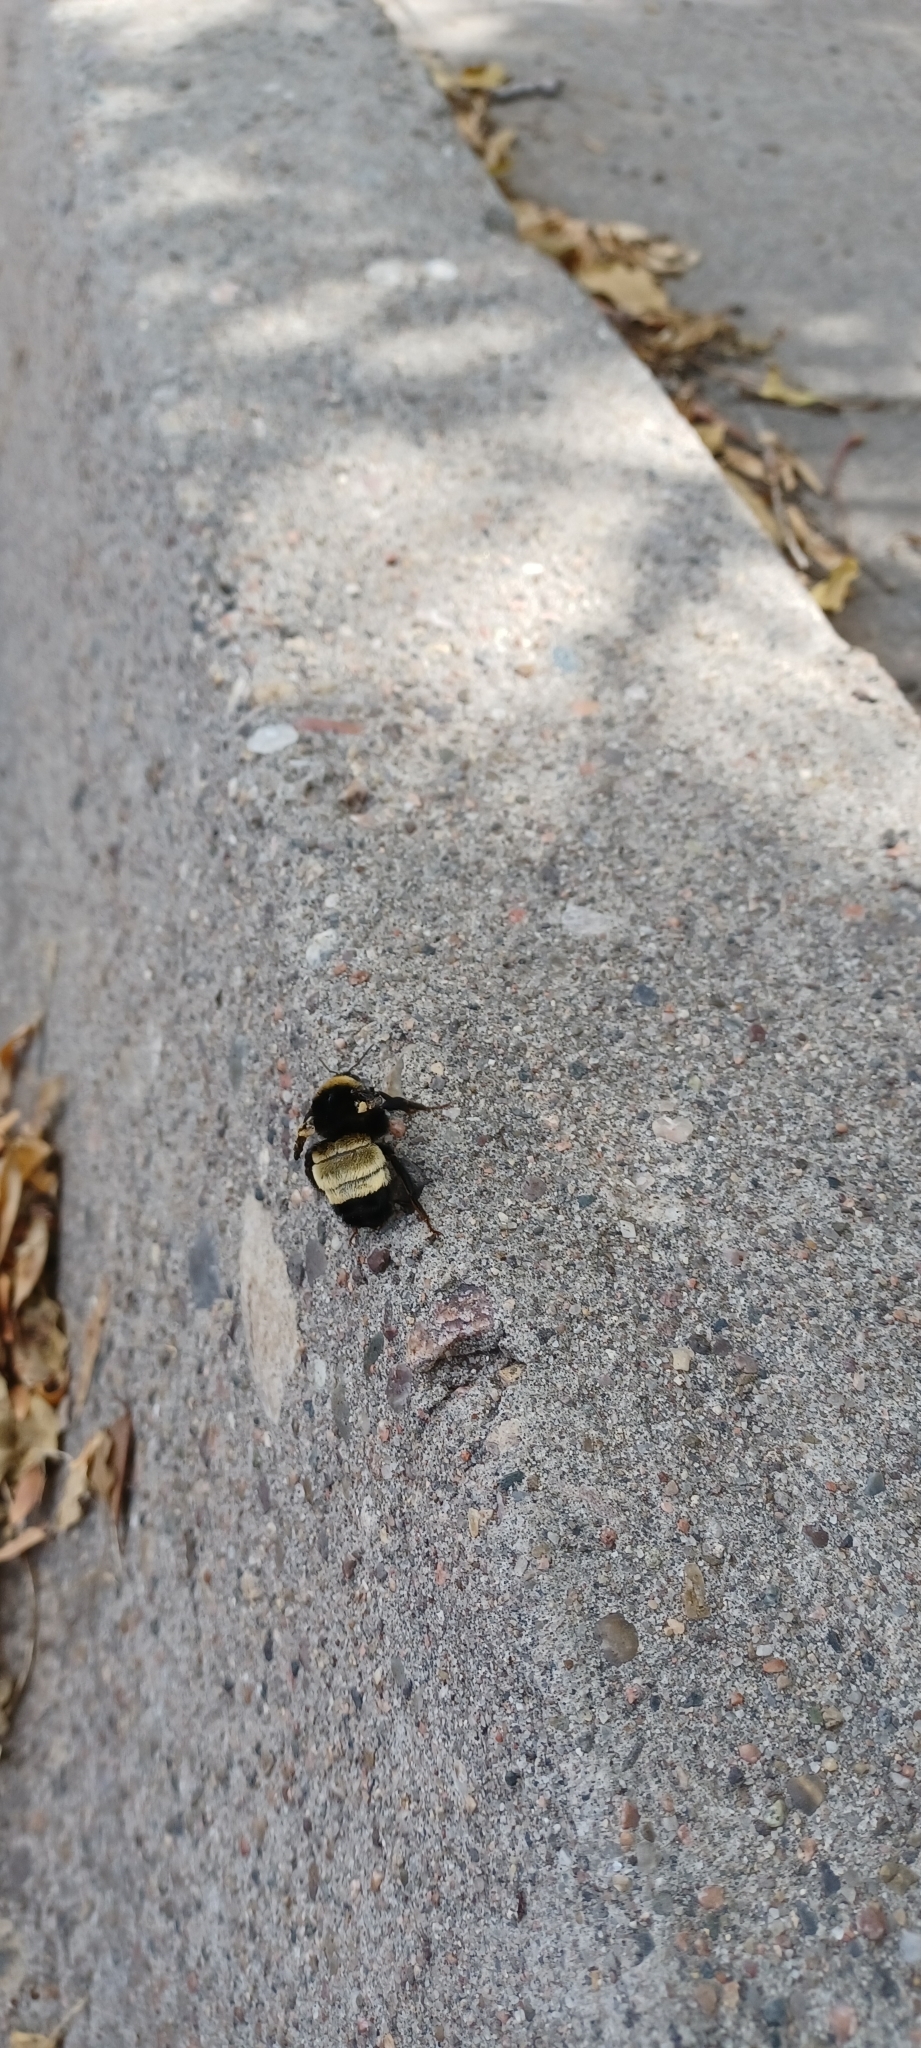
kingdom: Animalia
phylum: Arthropoda
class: Insecta
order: Hymenoptera
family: Apidae
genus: Bombus
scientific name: Bombus pensylvanicus
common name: Bumble bee
